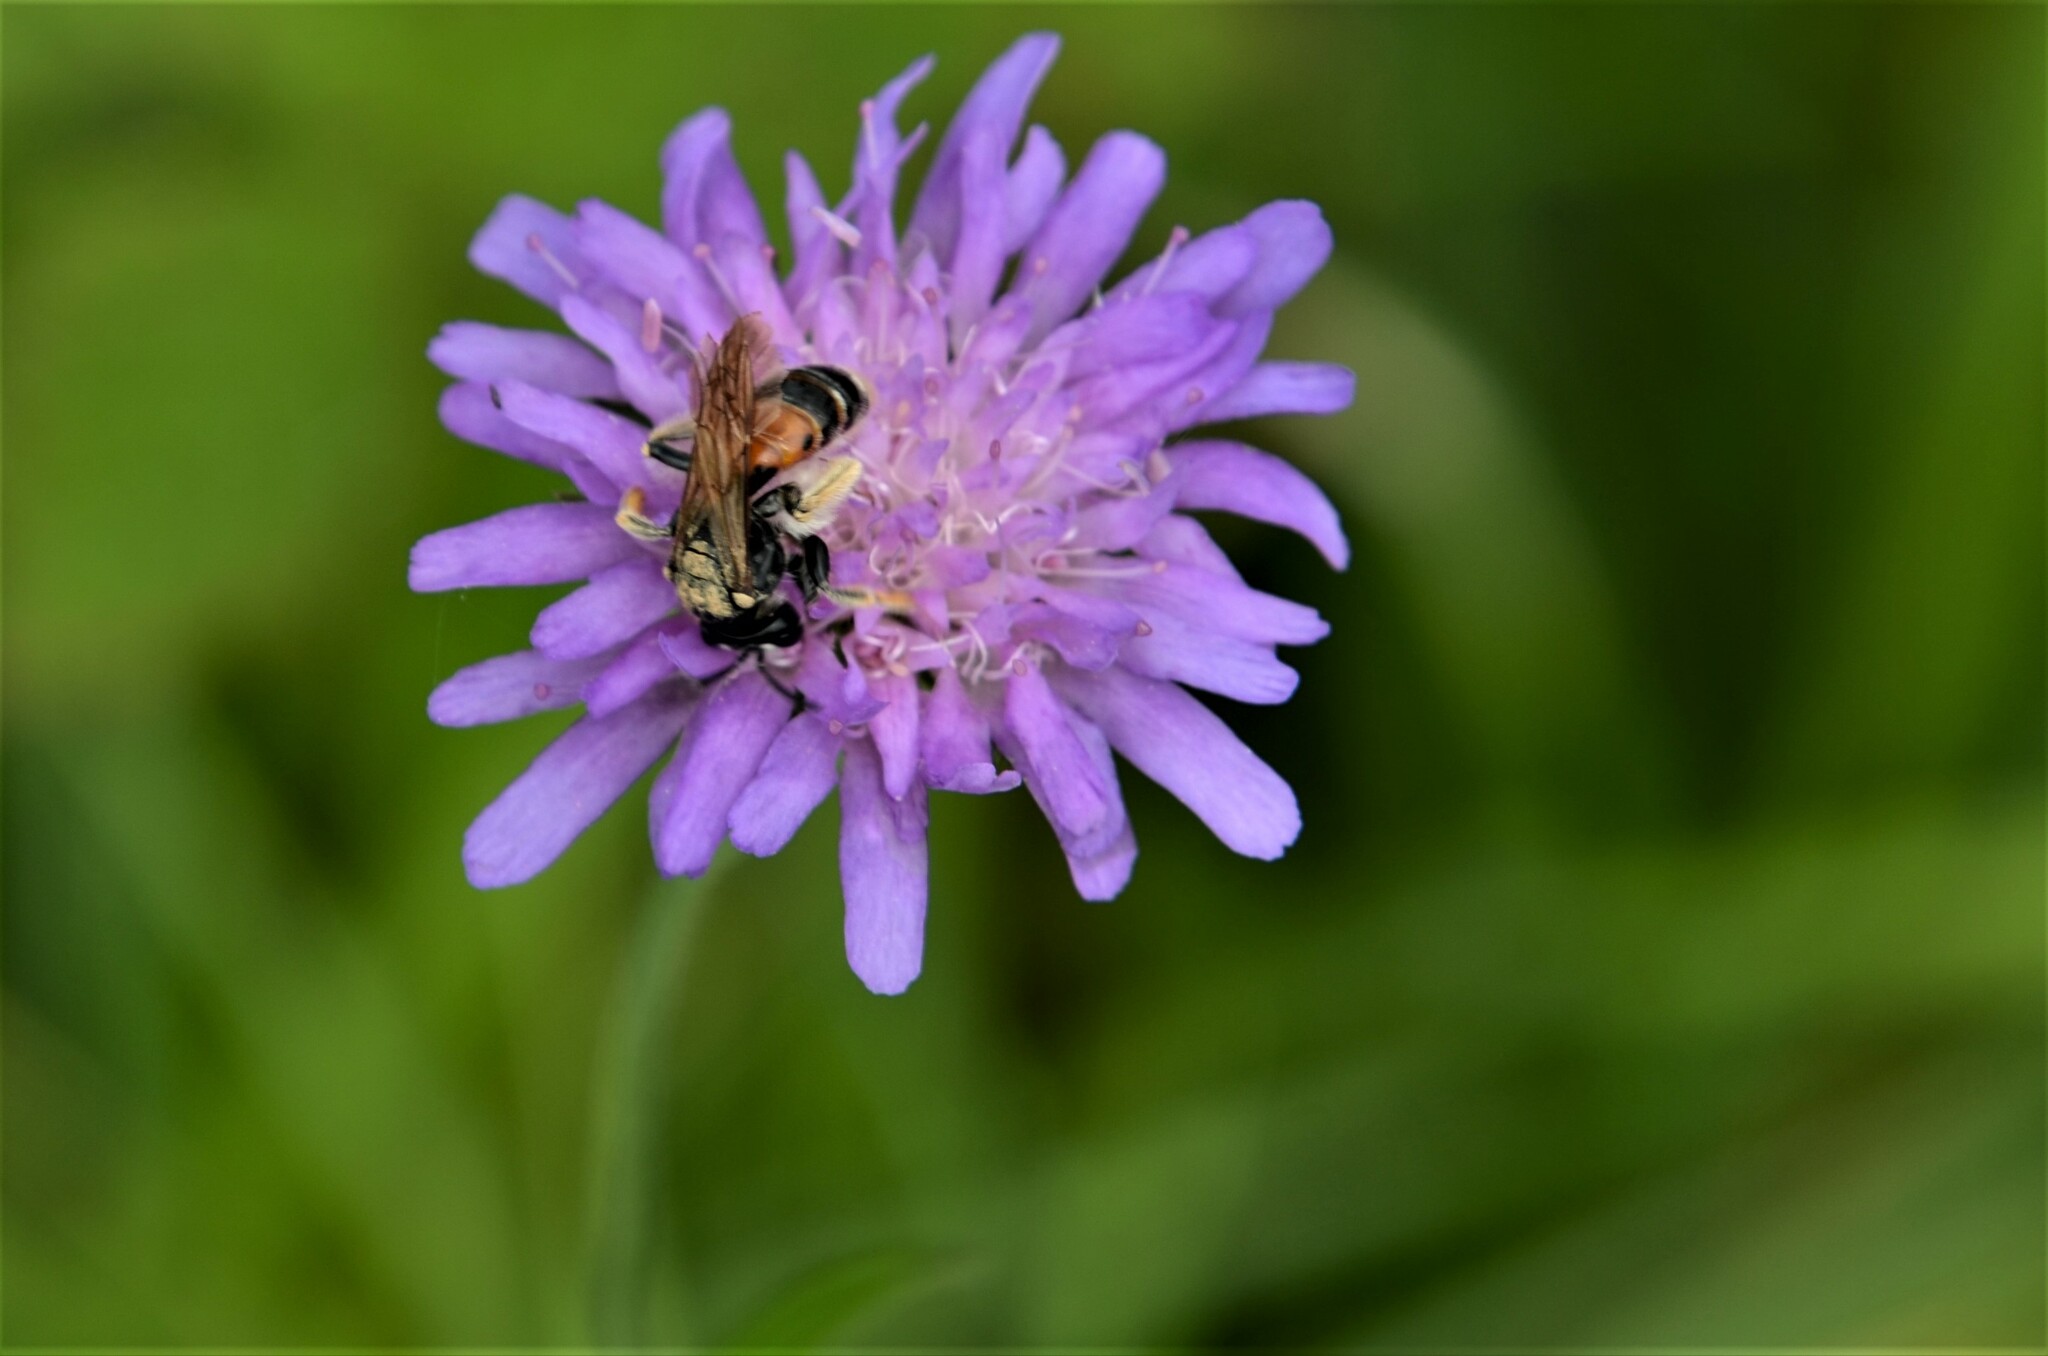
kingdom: Animalia
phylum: Arthropoda
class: Insecta
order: Hymenoptera
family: Andrenidae
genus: Andrena
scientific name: Andrena hattorfiana
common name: Large scabious mining bee
